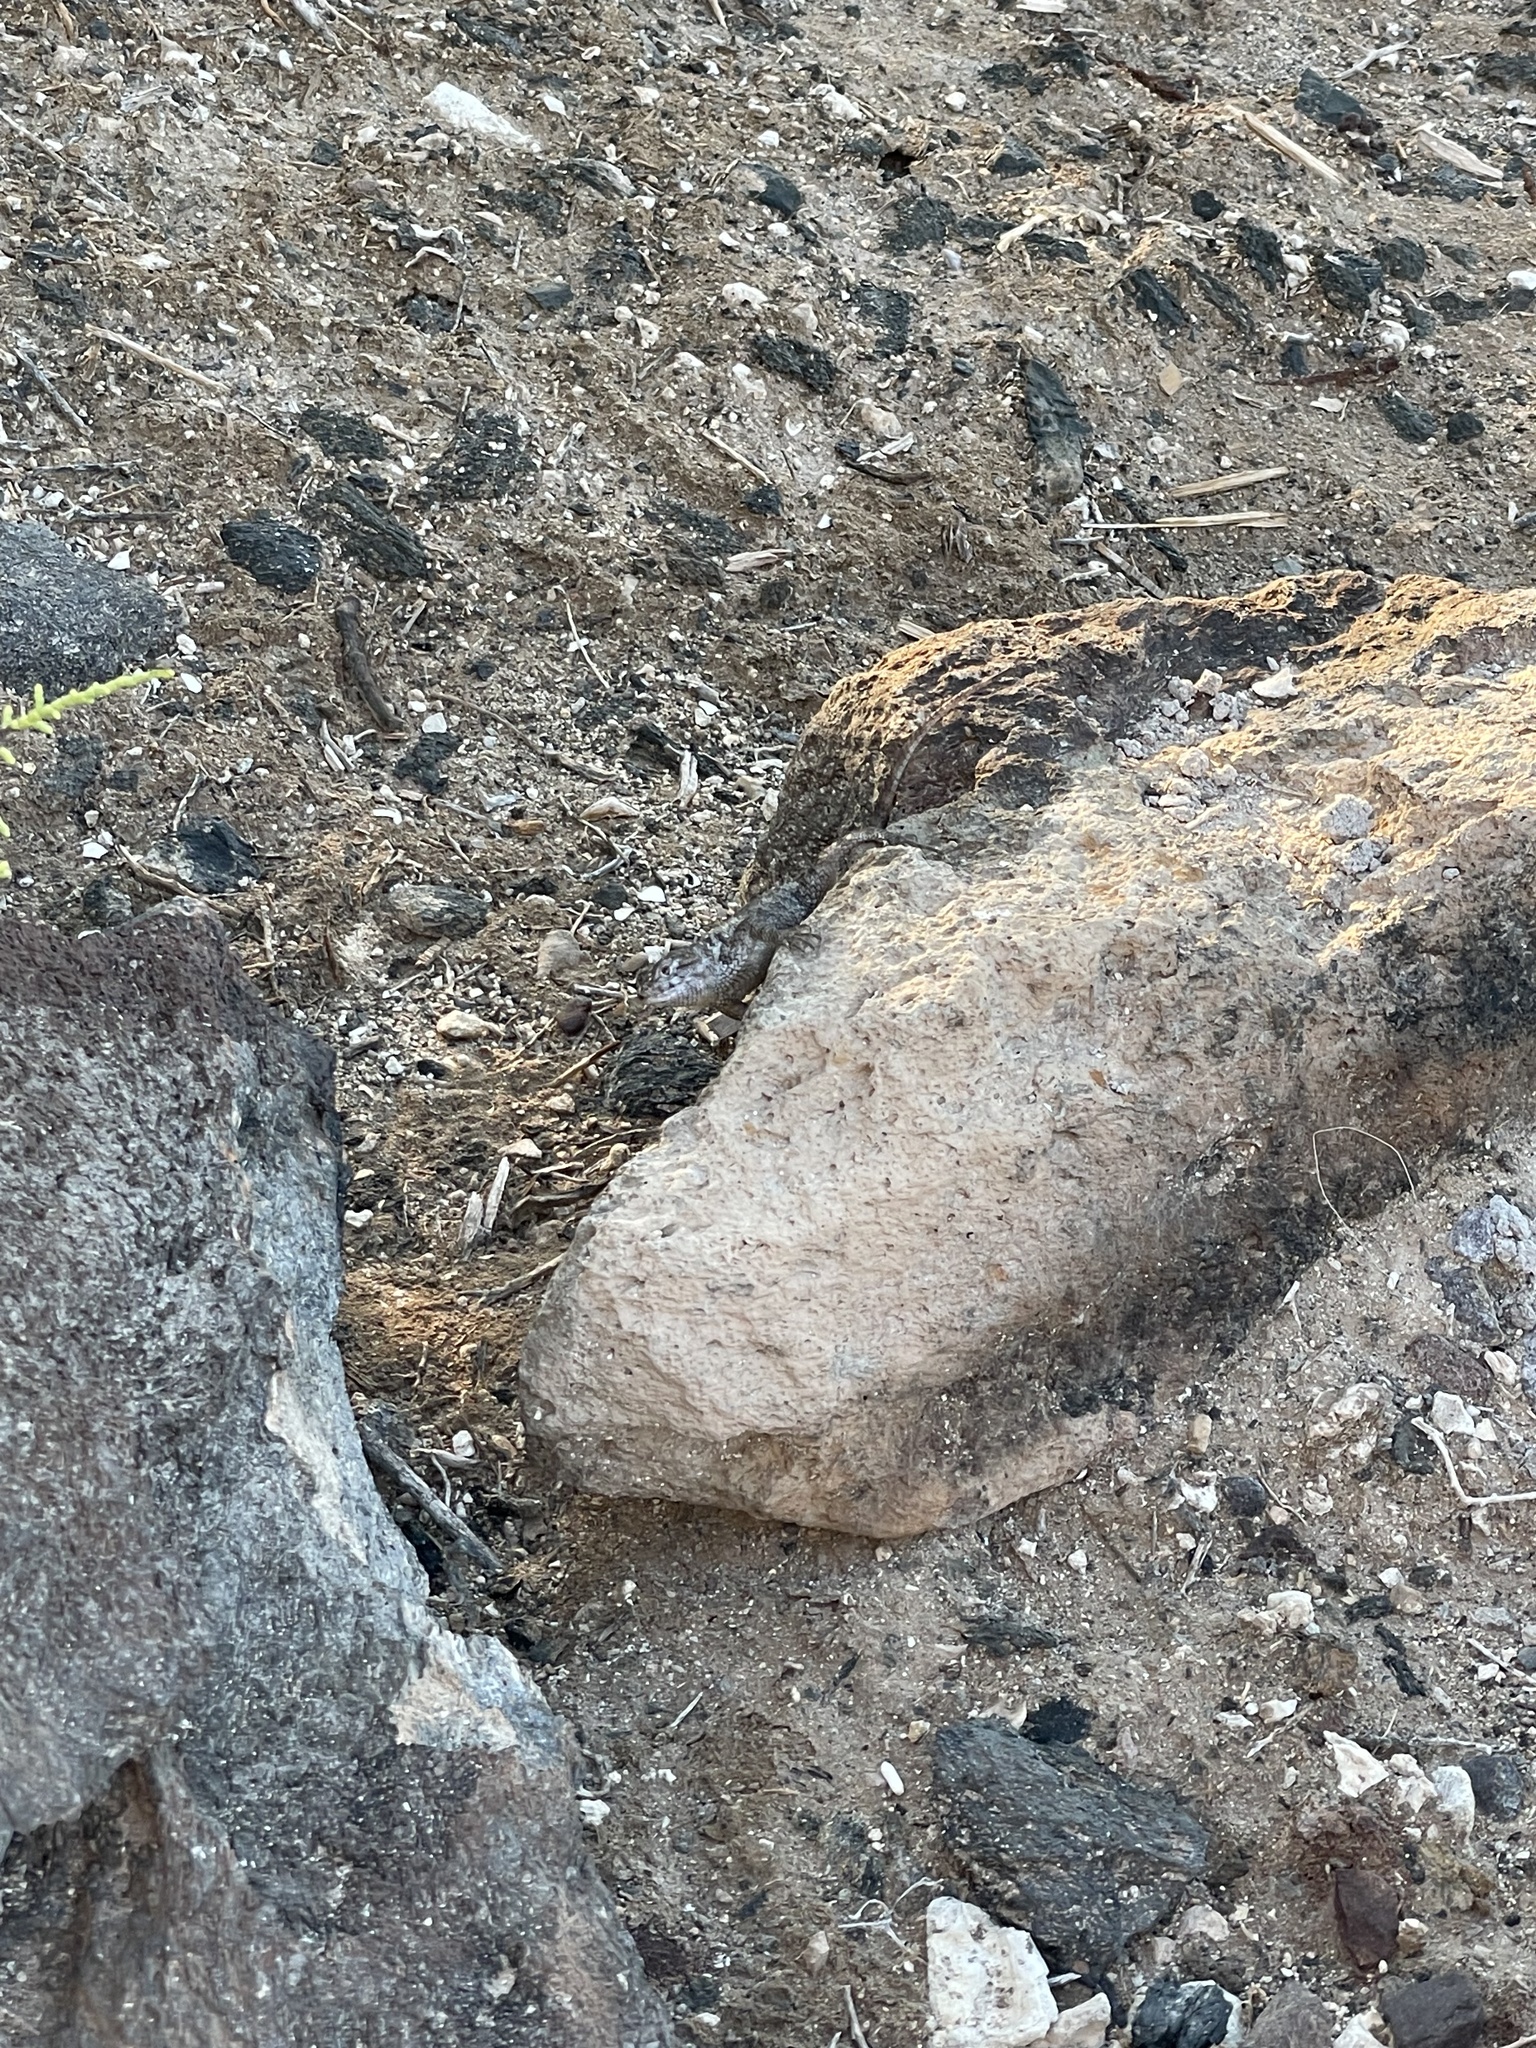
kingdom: Animalia
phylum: Chordata
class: Squamata
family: Phrynosomatidae
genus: Sceloporus
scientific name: Sceloporus zosteromus
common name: Baja spiny lizard
